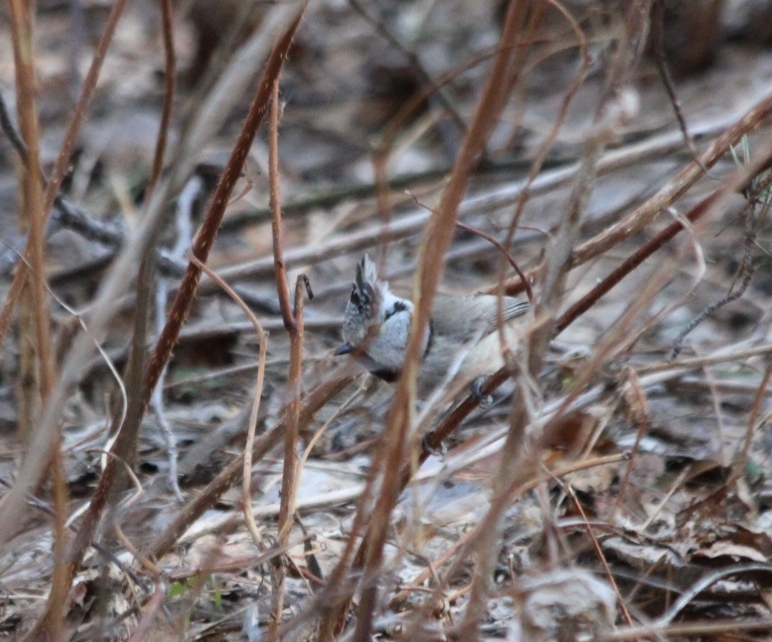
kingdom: Animalia
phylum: Chordata
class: Aves
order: Passeriformes
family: Paridae
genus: Lophophanes
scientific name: Lophophanes cristatus
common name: European crested tit
